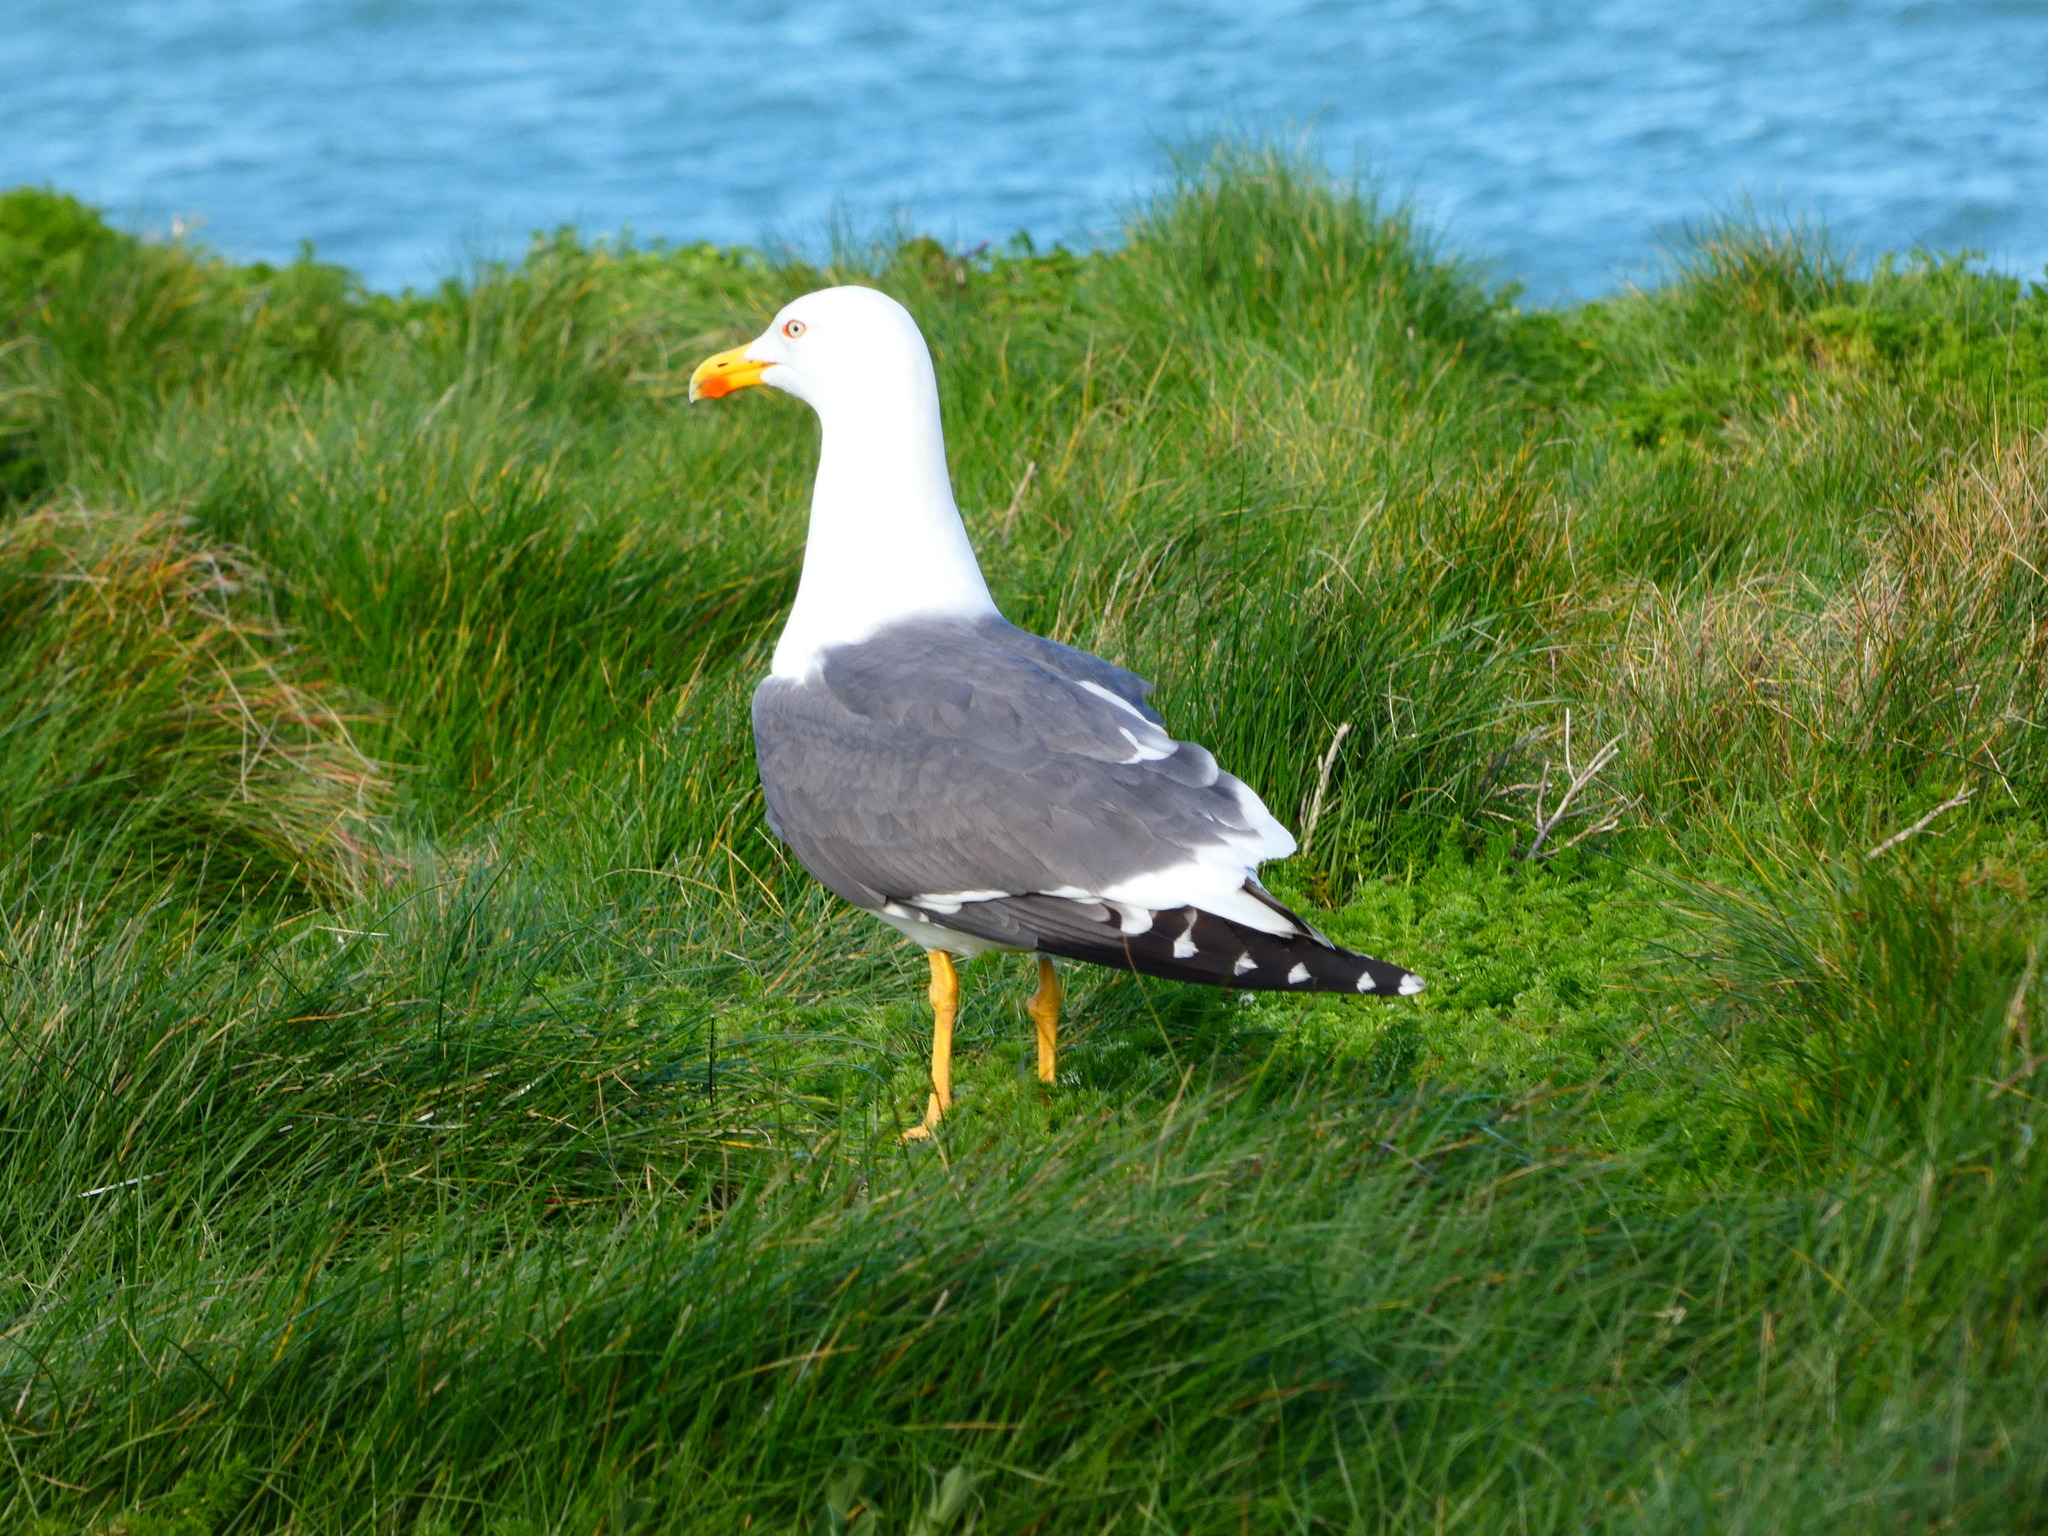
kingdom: Animalia
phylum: Chordata
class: Aves
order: Charadriiformes
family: Laridae
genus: Larus
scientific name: Larus fuscus
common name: Lesser black-backed gull
